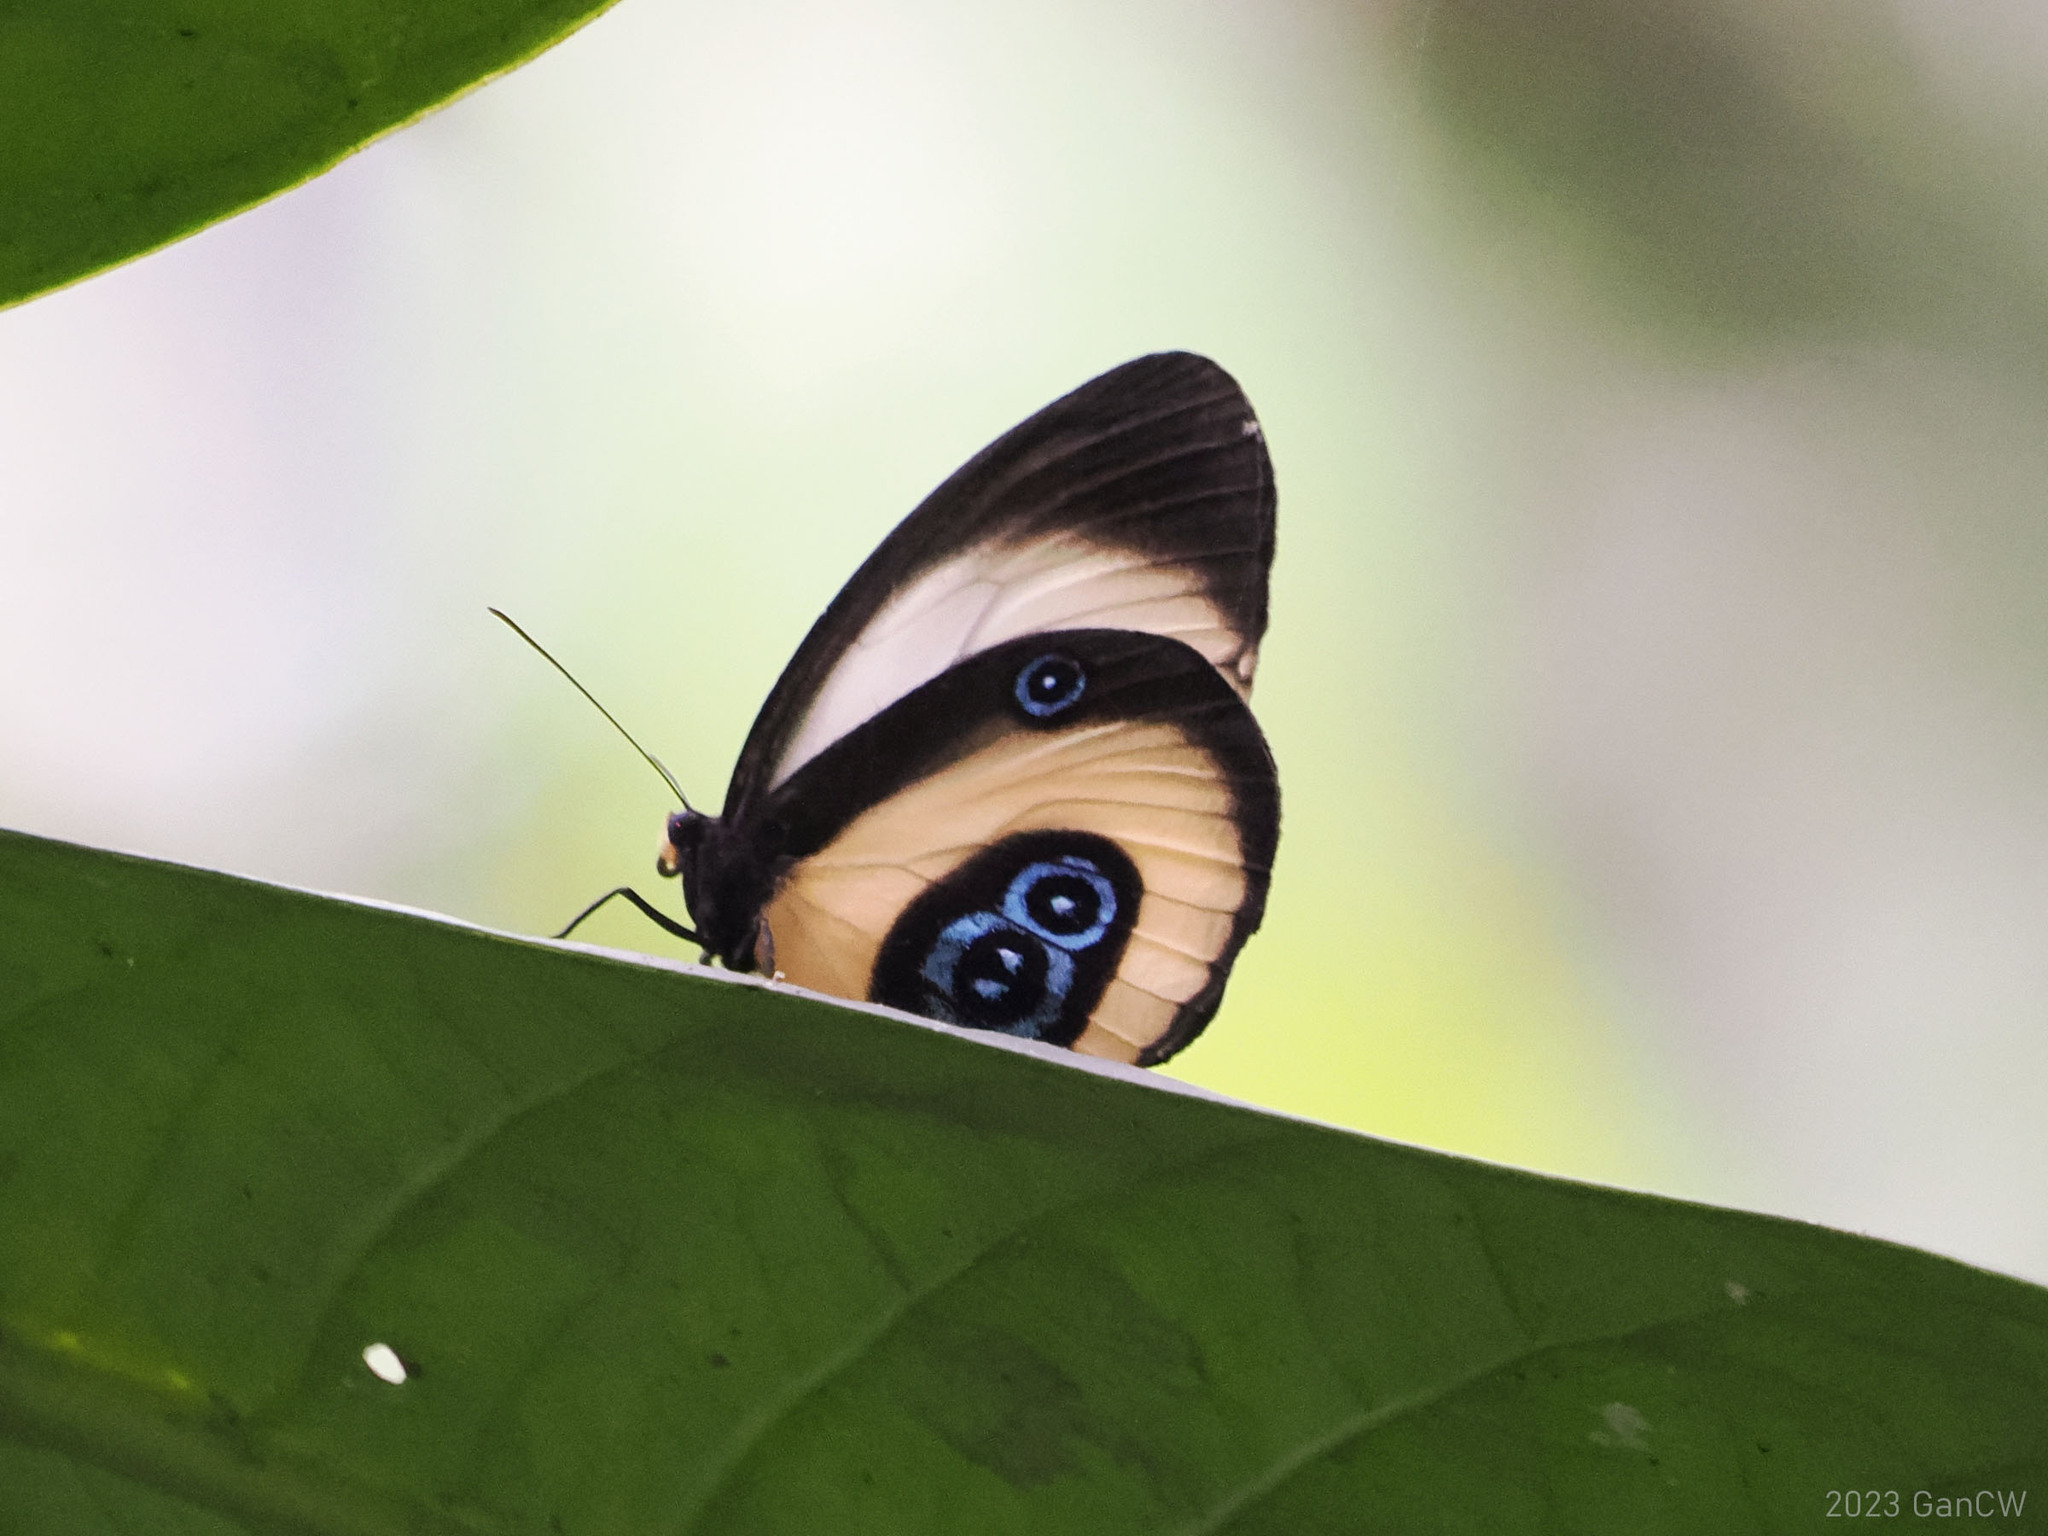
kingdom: Animalia
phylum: Arthropoda
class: Insecta
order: Lepidoptera
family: Nymphalidae
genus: Taenaris
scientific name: Taenaris bioculata
